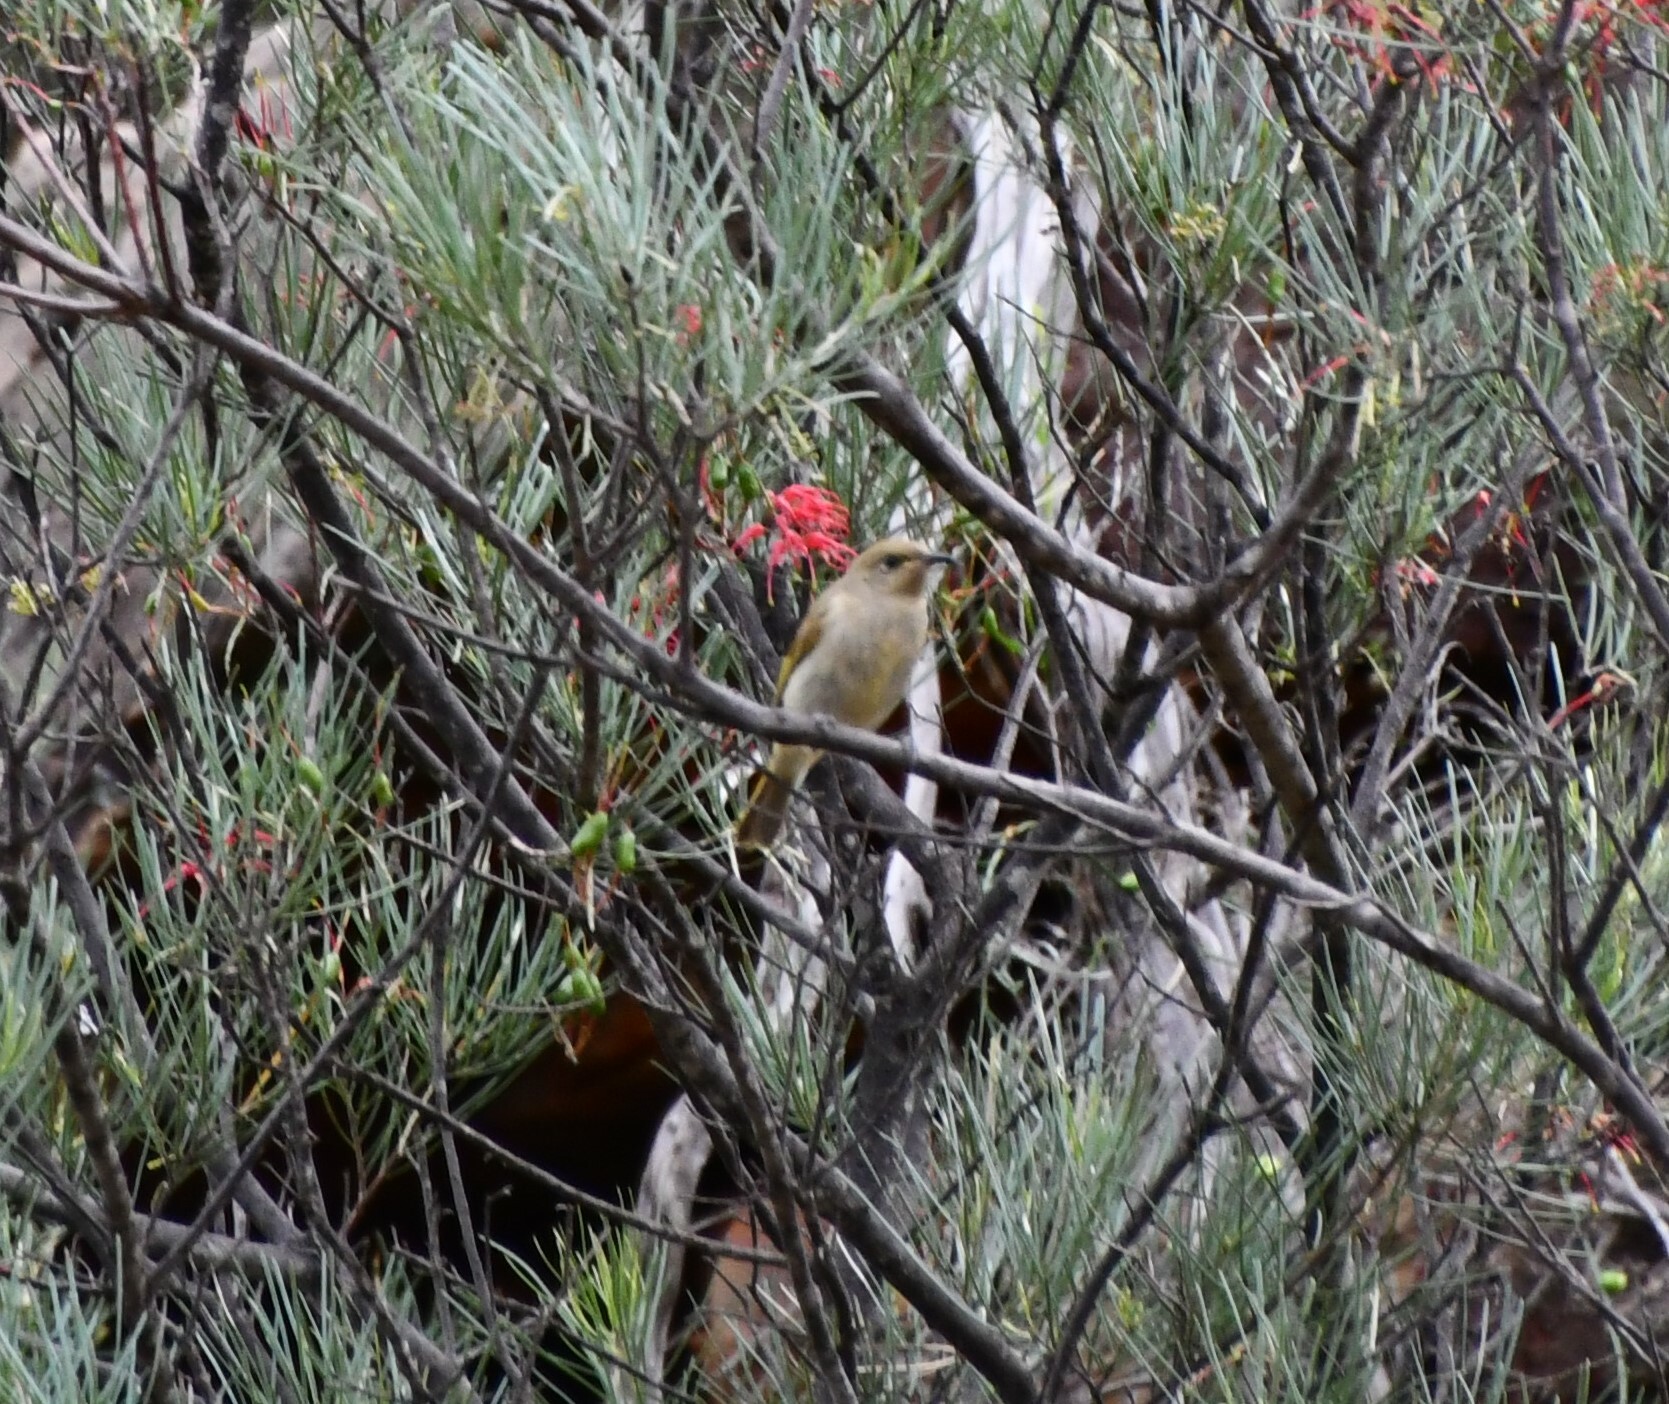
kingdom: Animalia
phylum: Chordata
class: Aves
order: Passeriformes
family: Meliphagidae
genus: Lichmera
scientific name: Lichmera indistincta
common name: Brown honeyeater
